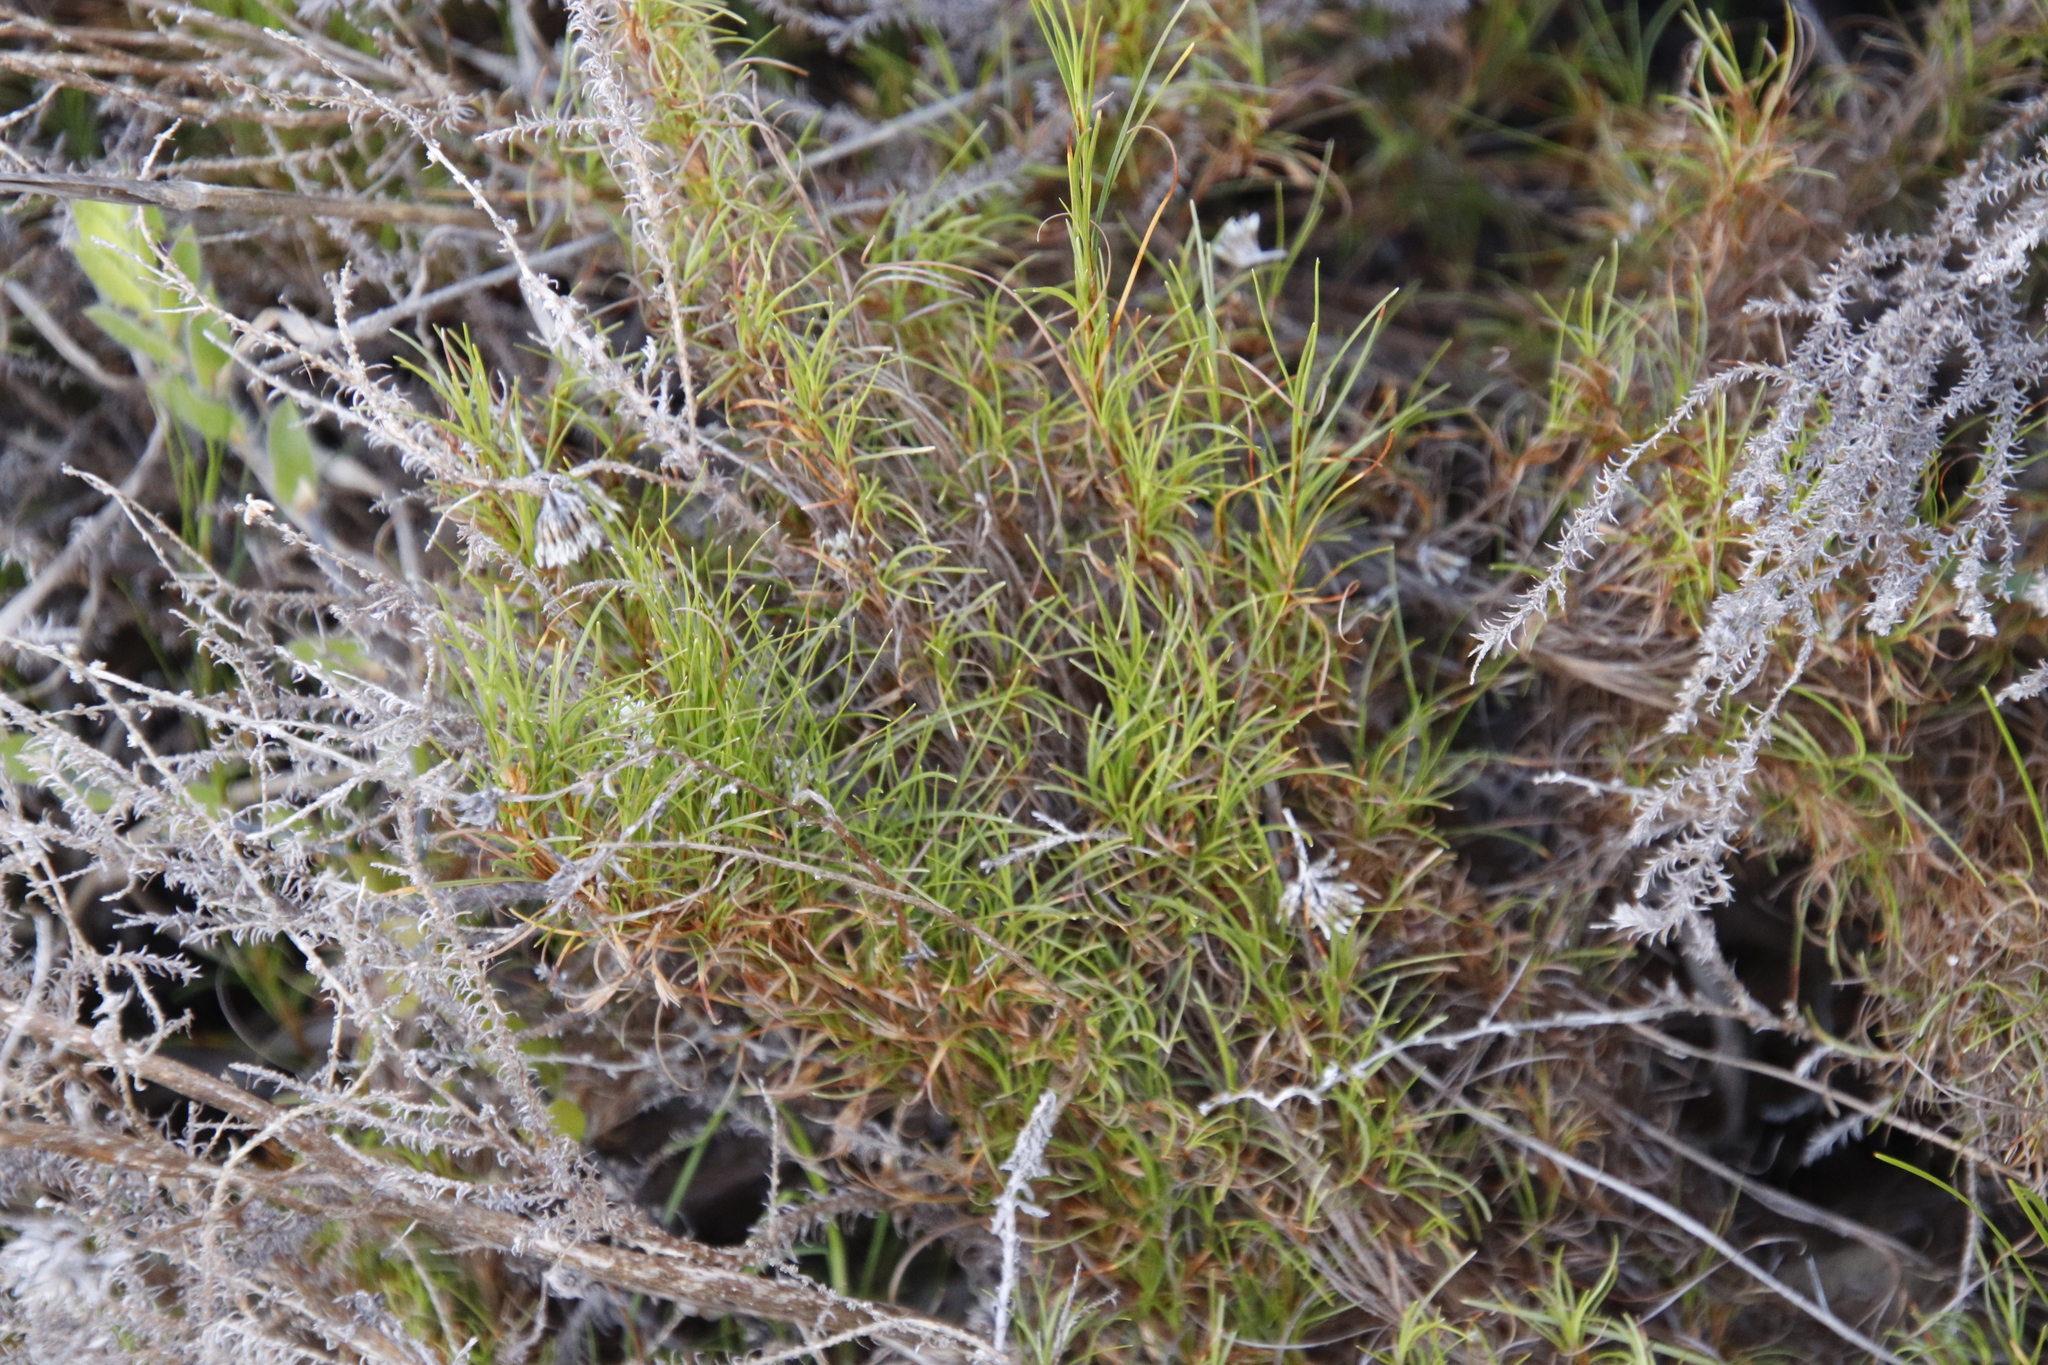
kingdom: Plantae
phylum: Tracheophyta
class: Liliopsida
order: Poales
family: Cyperaceae
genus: Ficinia
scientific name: Ficinia ramosissima
